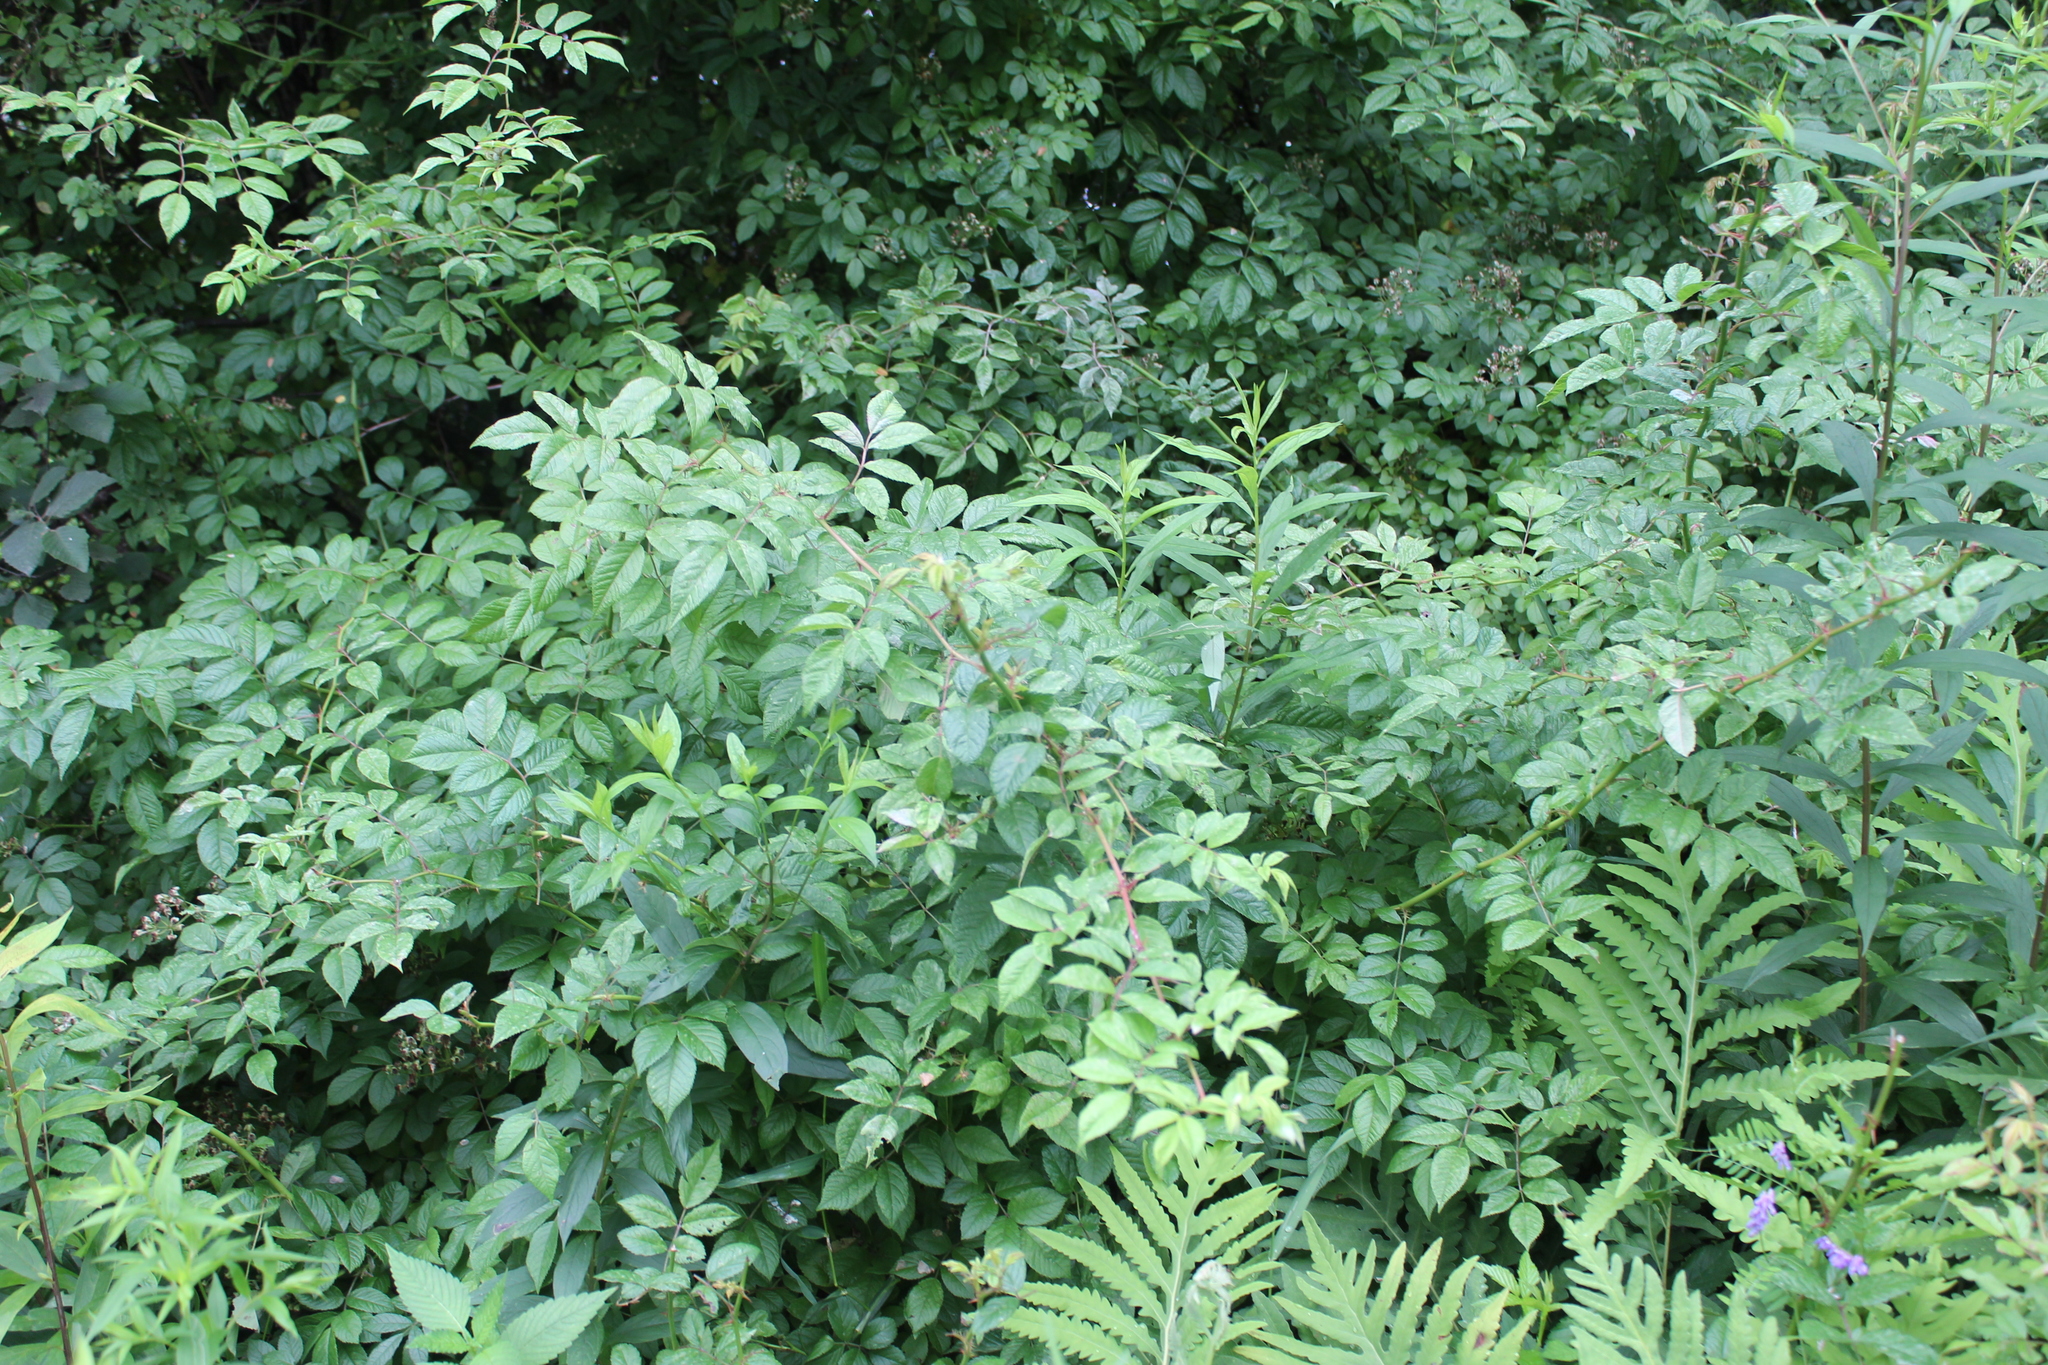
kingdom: Plantae
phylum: Tracheophyta
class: Magnoliopsida
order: Rosales
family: Rosaceae
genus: Rosa
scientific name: Rosa multiflora
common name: Multiflora rose
